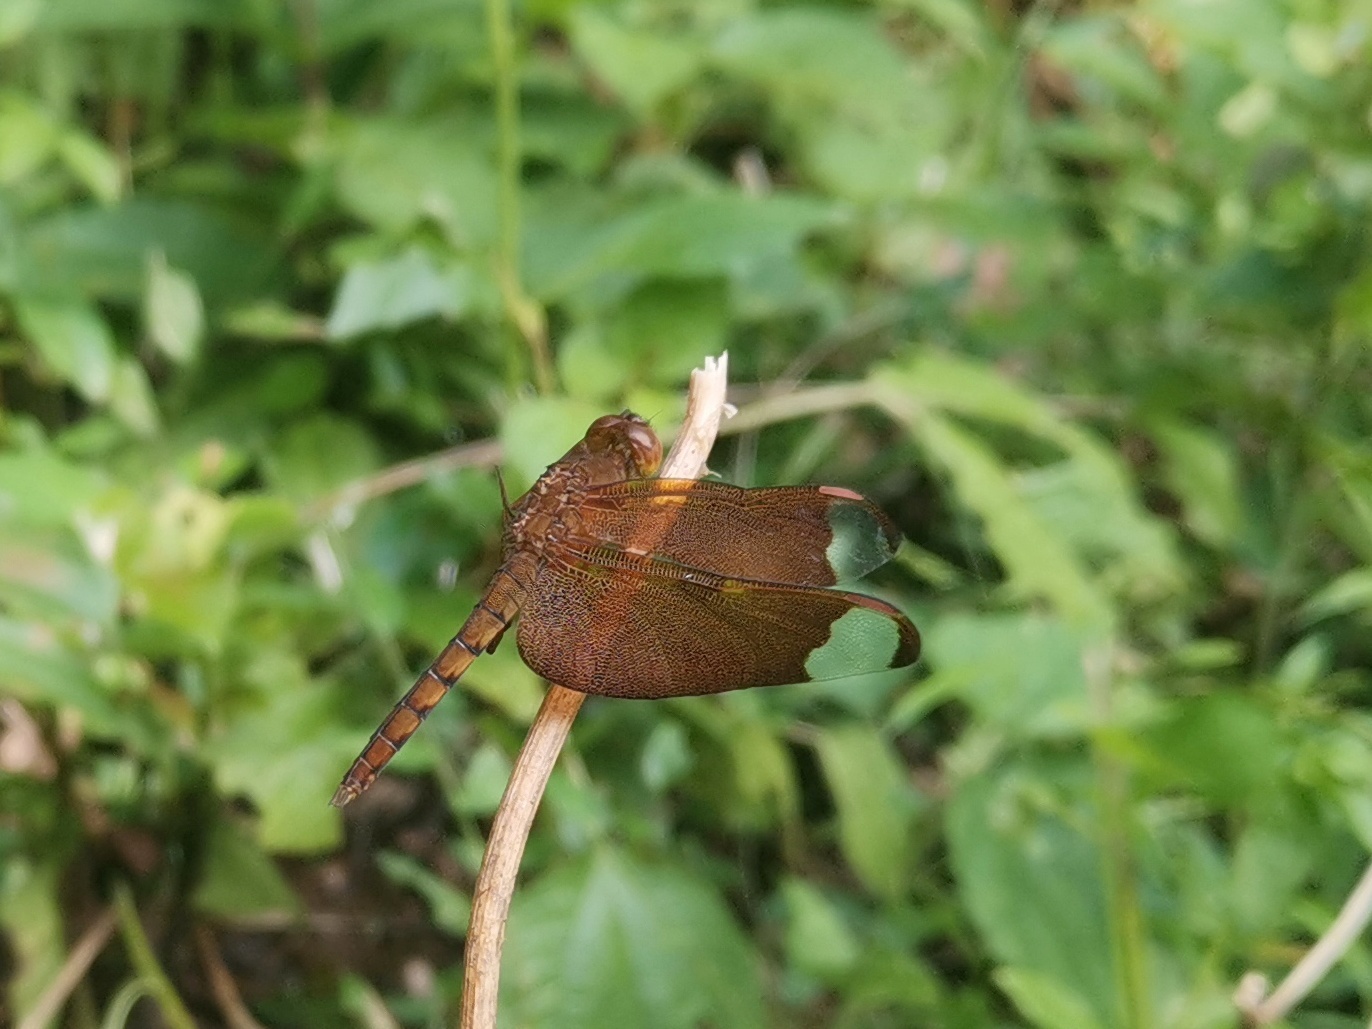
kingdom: Animalia
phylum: Arthropoda
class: Insecta
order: Odonata
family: Libellulidae
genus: Neurothemis
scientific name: Neurothemis fulvia
